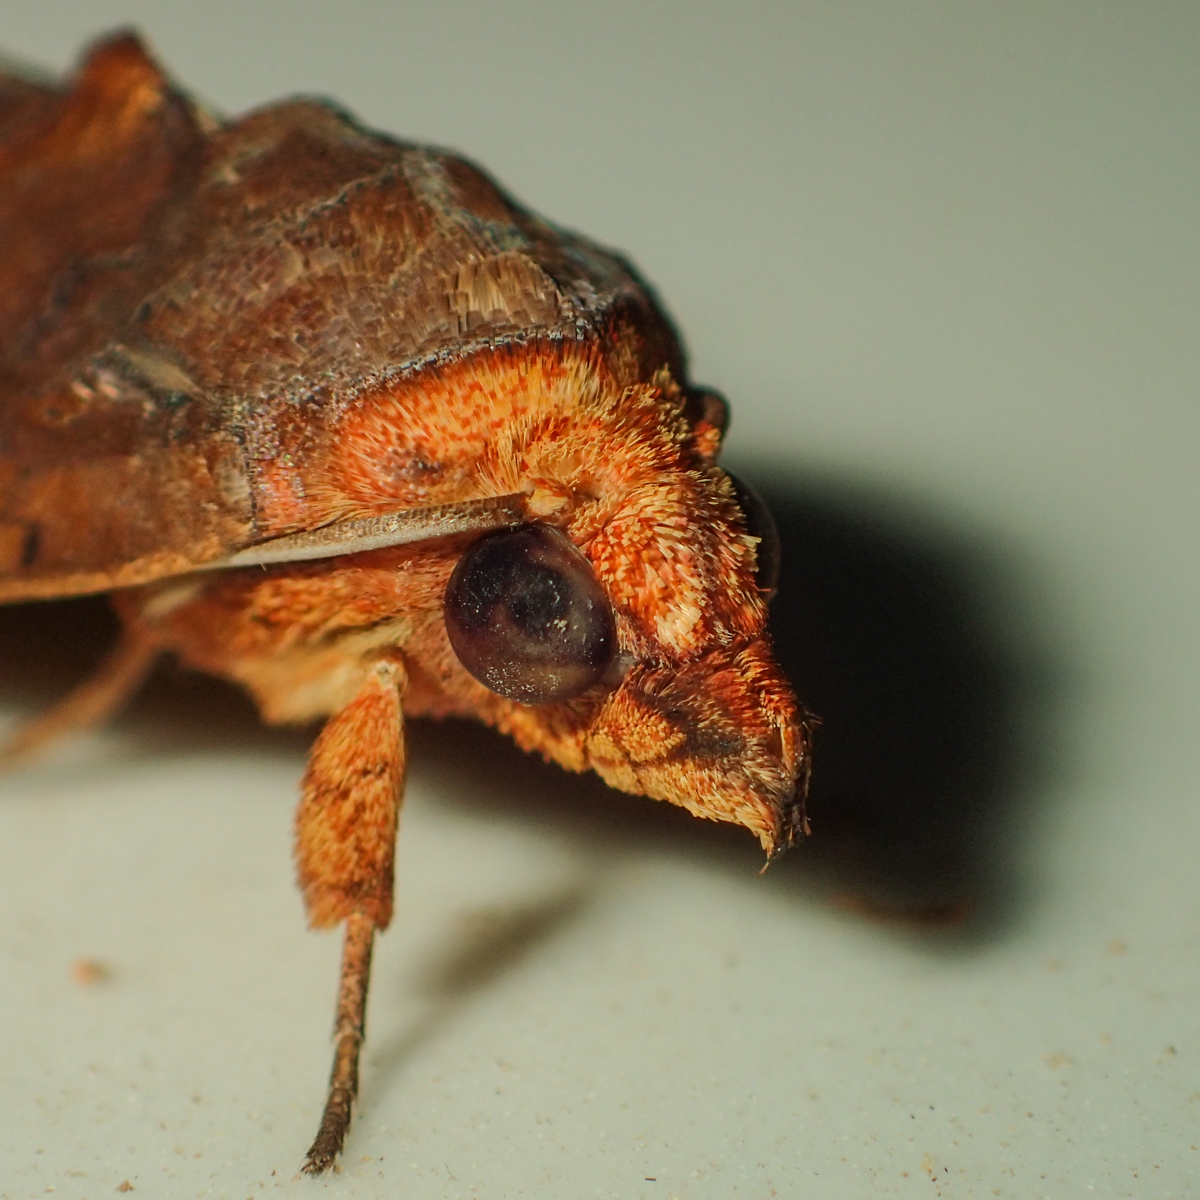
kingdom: Animalia
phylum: Arthropoda
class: Insecta
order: Lepidoptera
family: Erebidae
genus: Oraesia
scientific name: Oraesia emarginata
